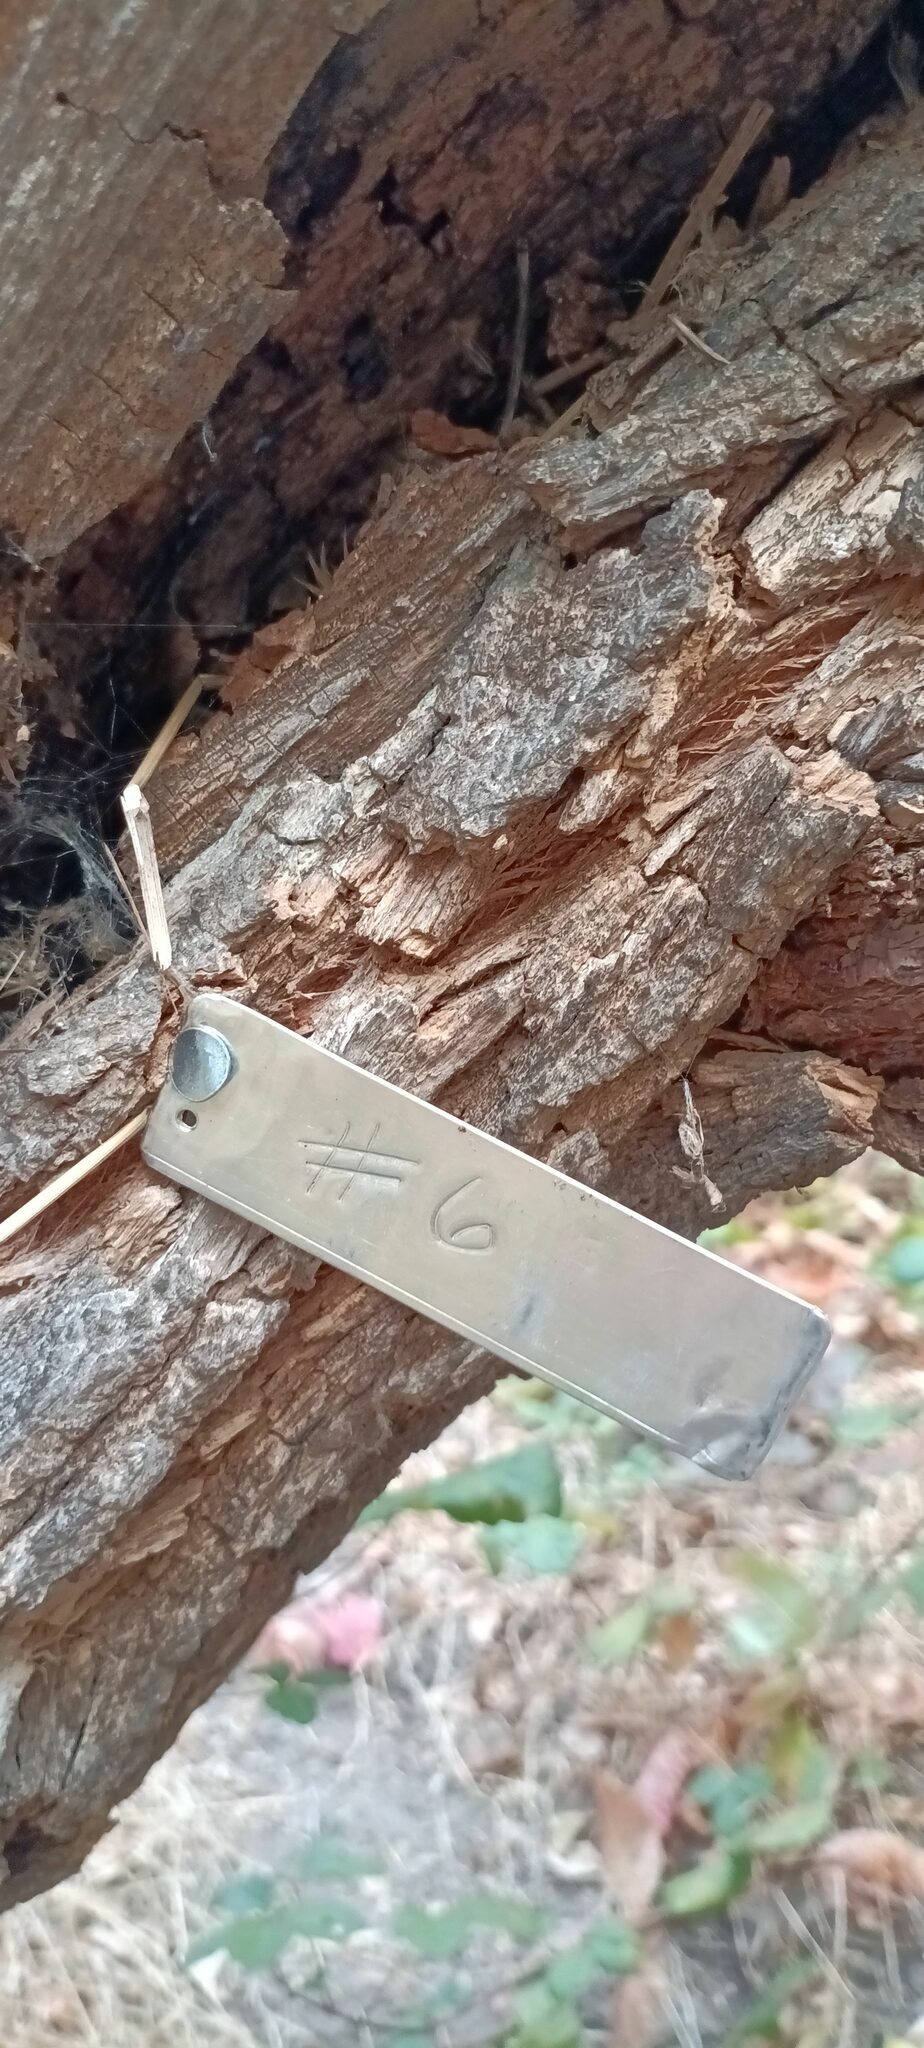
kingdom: Plantae
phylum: Tracheophyta
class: Magnoliopsida
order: Dipsacales
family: Viburnaceae
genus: Sambucus
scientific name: Sambucus cerulea
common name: Blue elder
